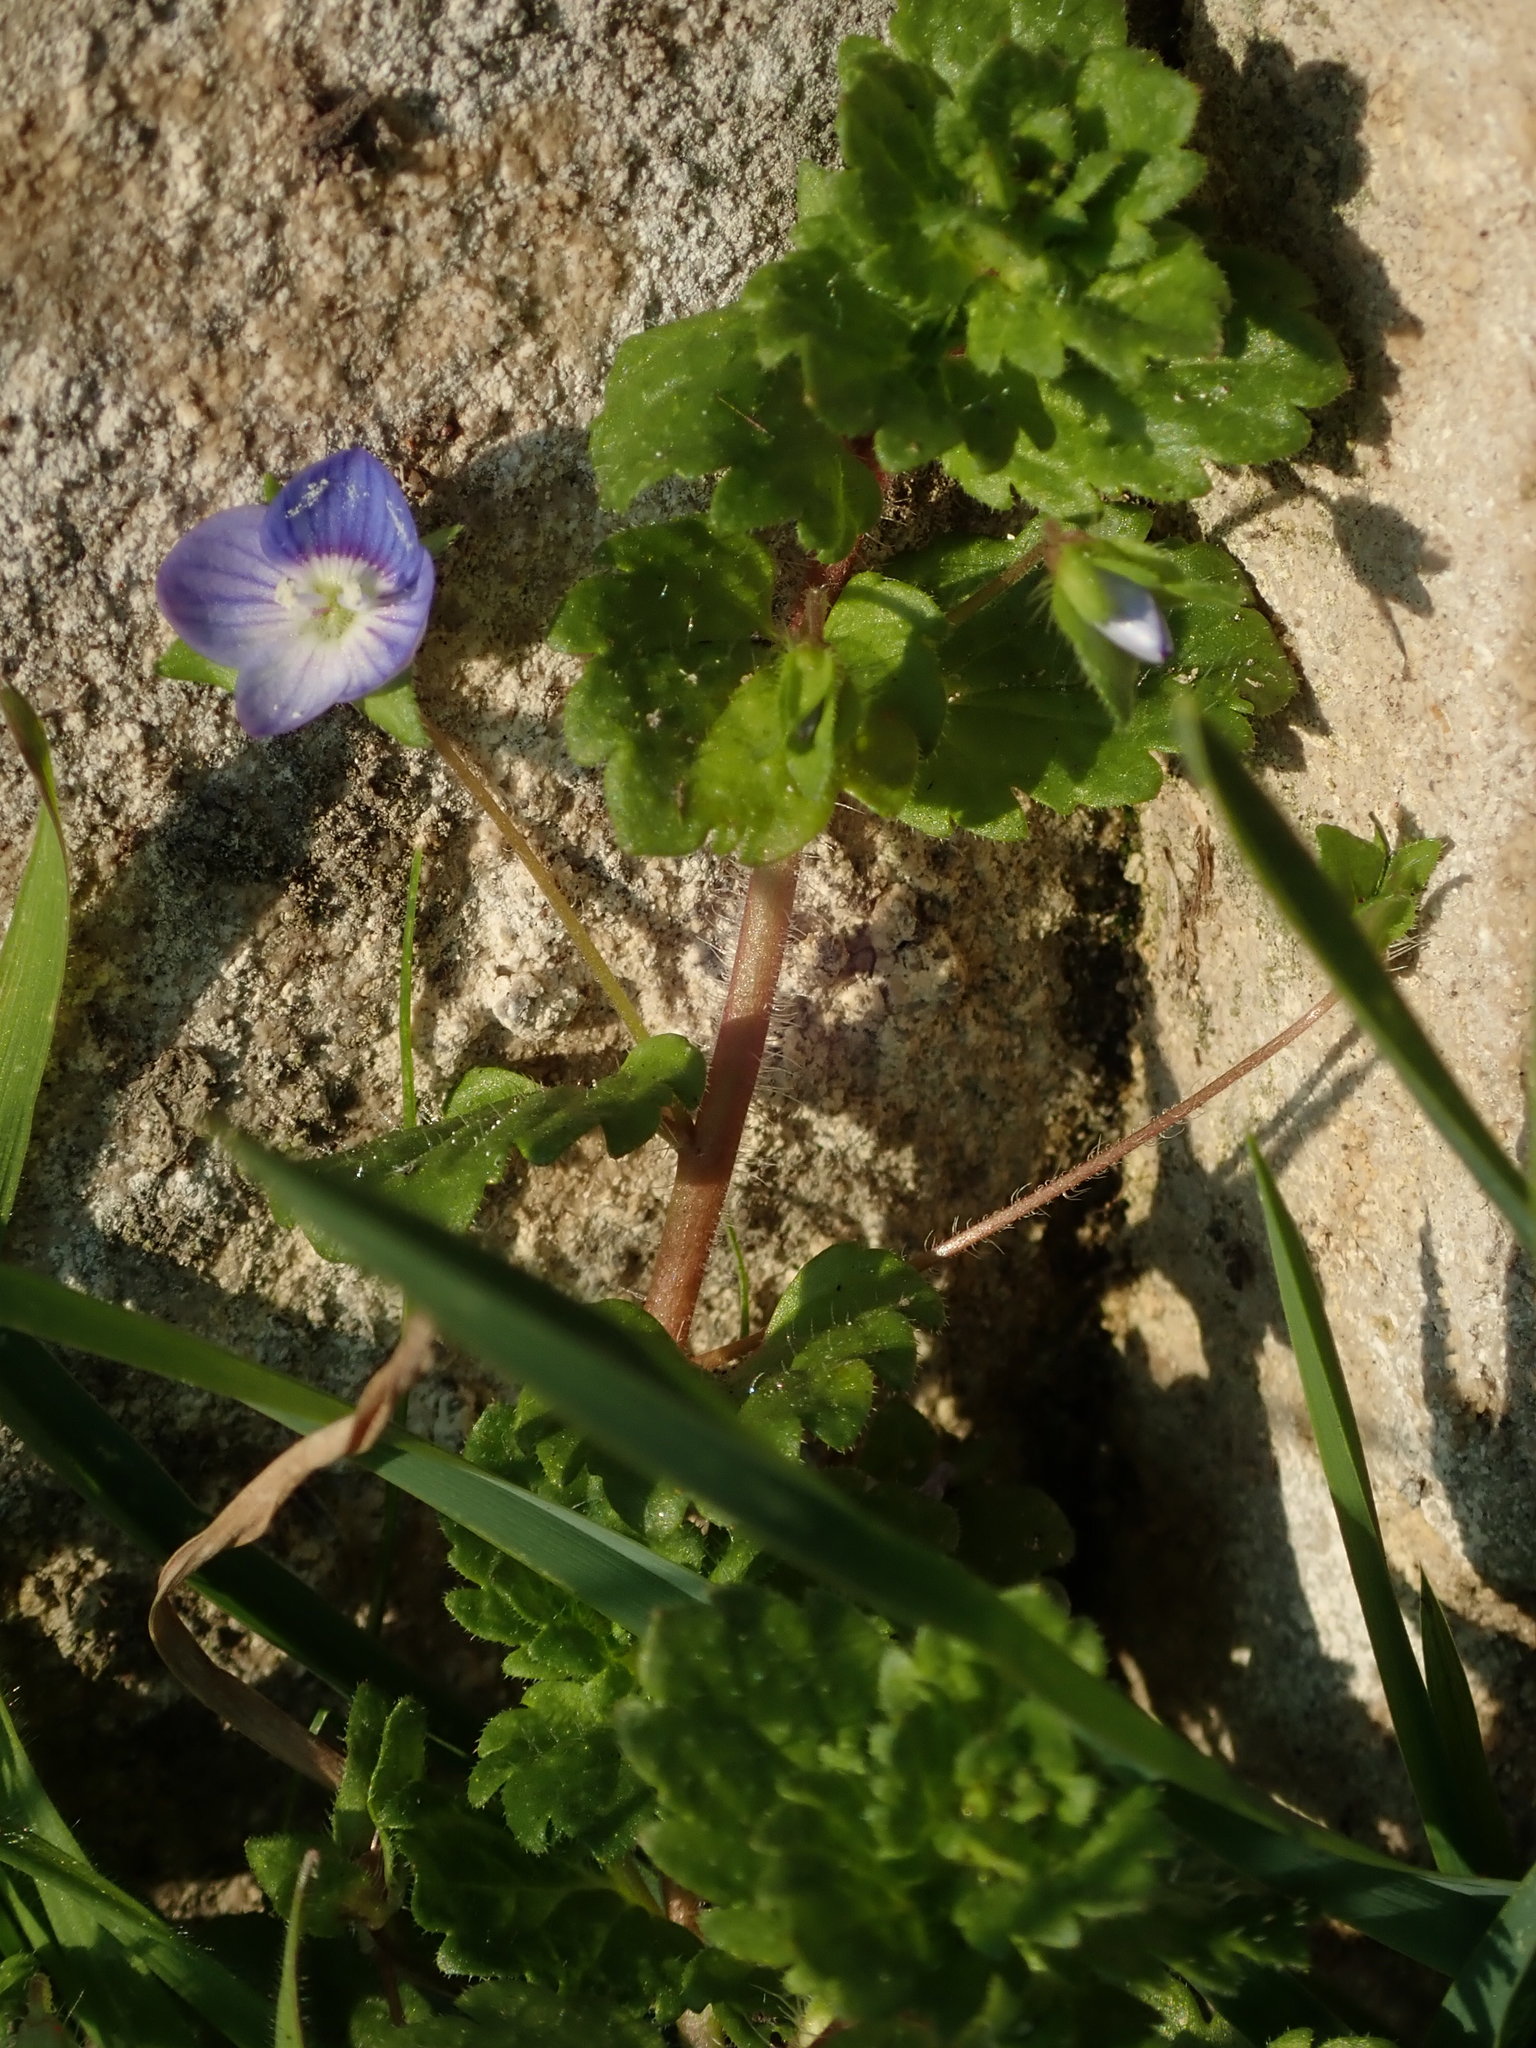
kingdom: Plantae
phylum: Tracheophyta
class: Magnoliopsida
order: Lamiales
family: Plantaginaceae
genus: Veronica
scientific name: Veronica persica
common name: Common field-speedwell
